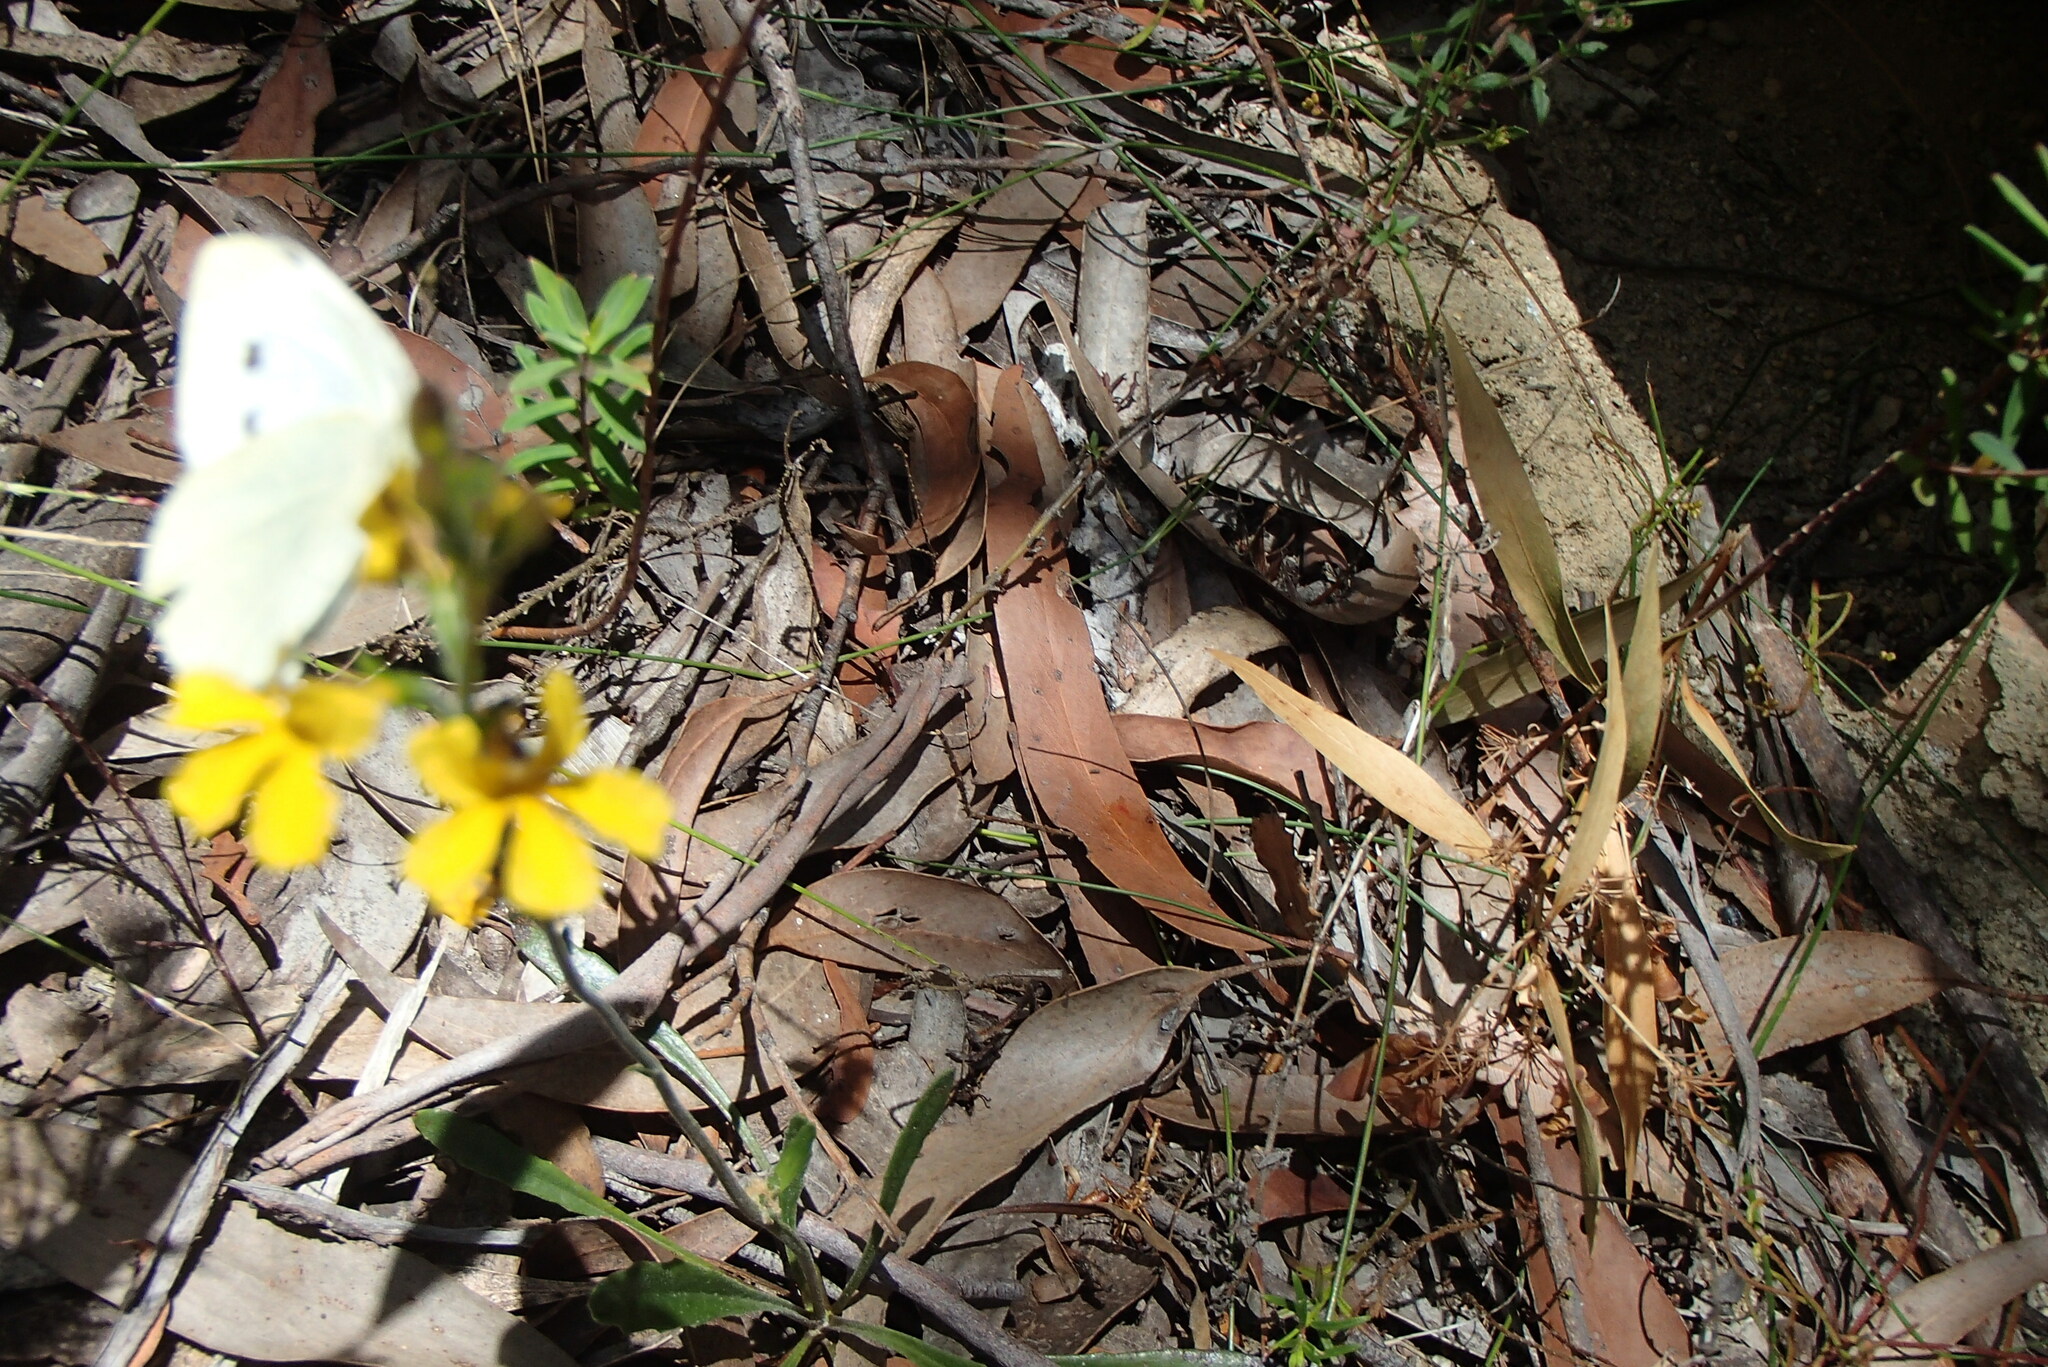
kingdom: Animalia
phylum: Arthropoda
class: Insecta
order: Lepidoptera
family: Pieridae
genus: Pieris
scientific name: Pieris rapae
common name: Small white
